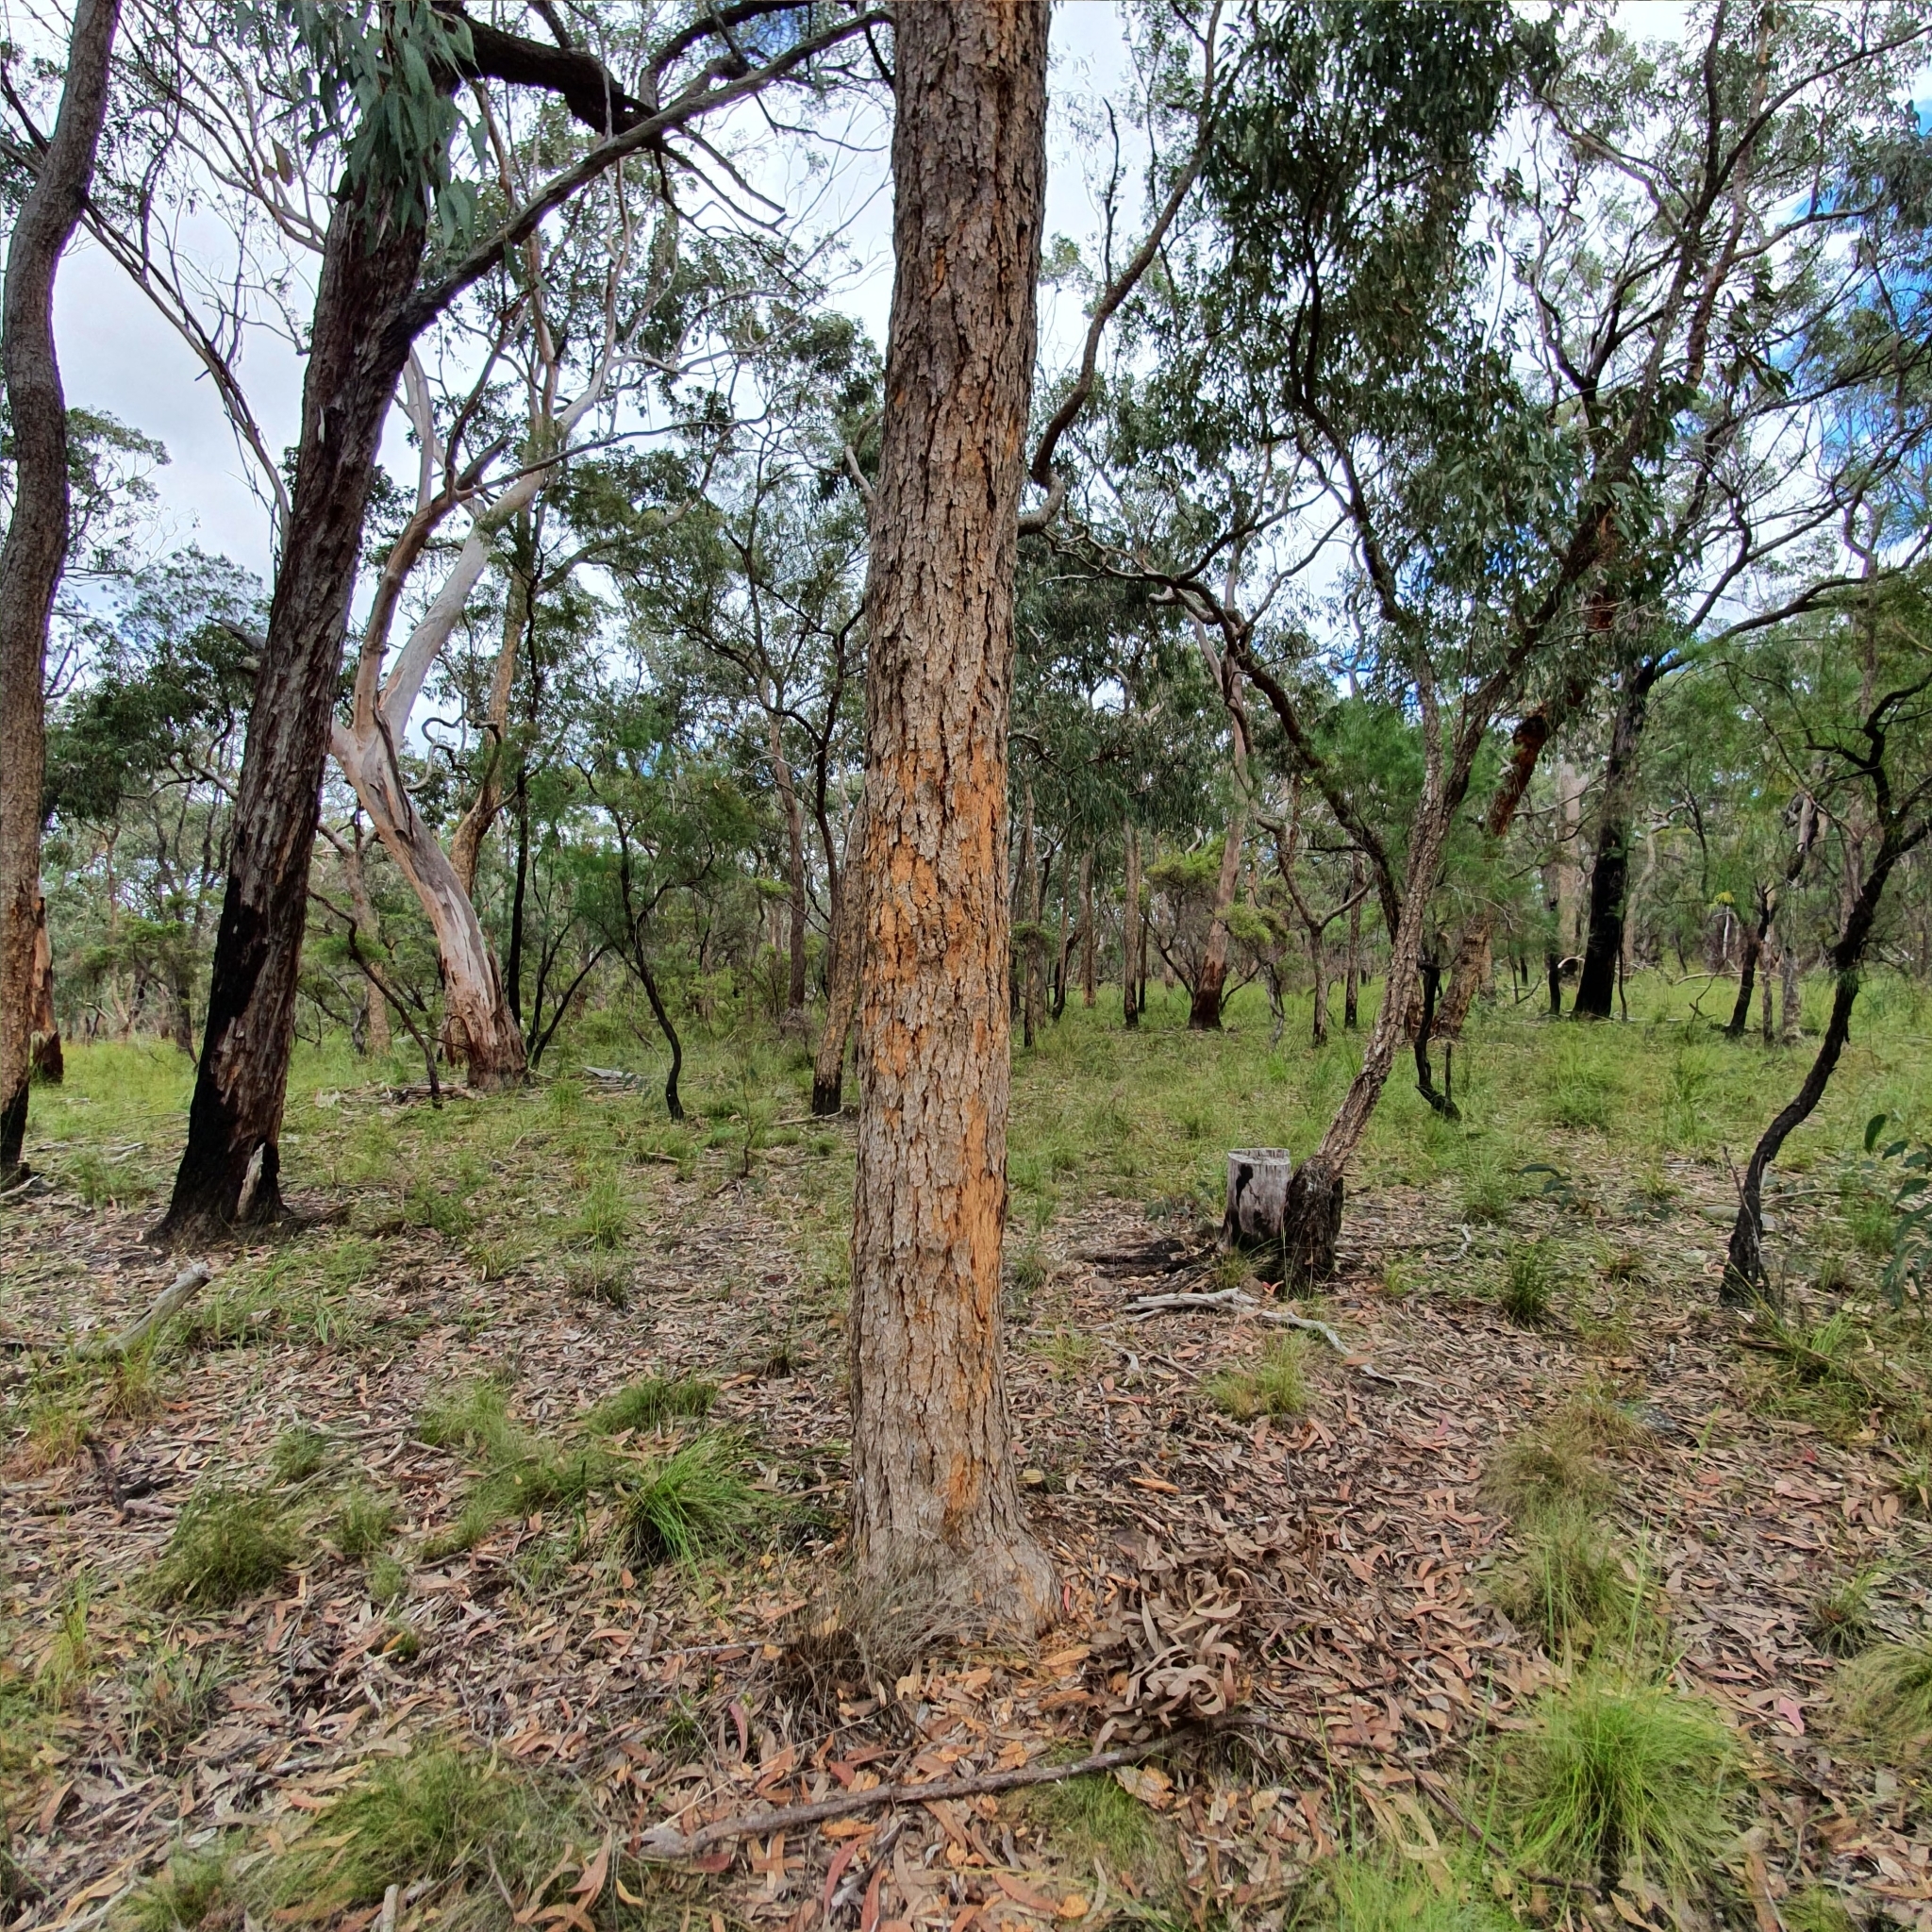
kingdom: Plantae
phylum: Tracheophyta
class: Magnoliopsida
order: Myrtales
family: Myrtaceae
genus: Corymbia
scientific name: Corymbia eximia
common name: Yellow bloodwood
